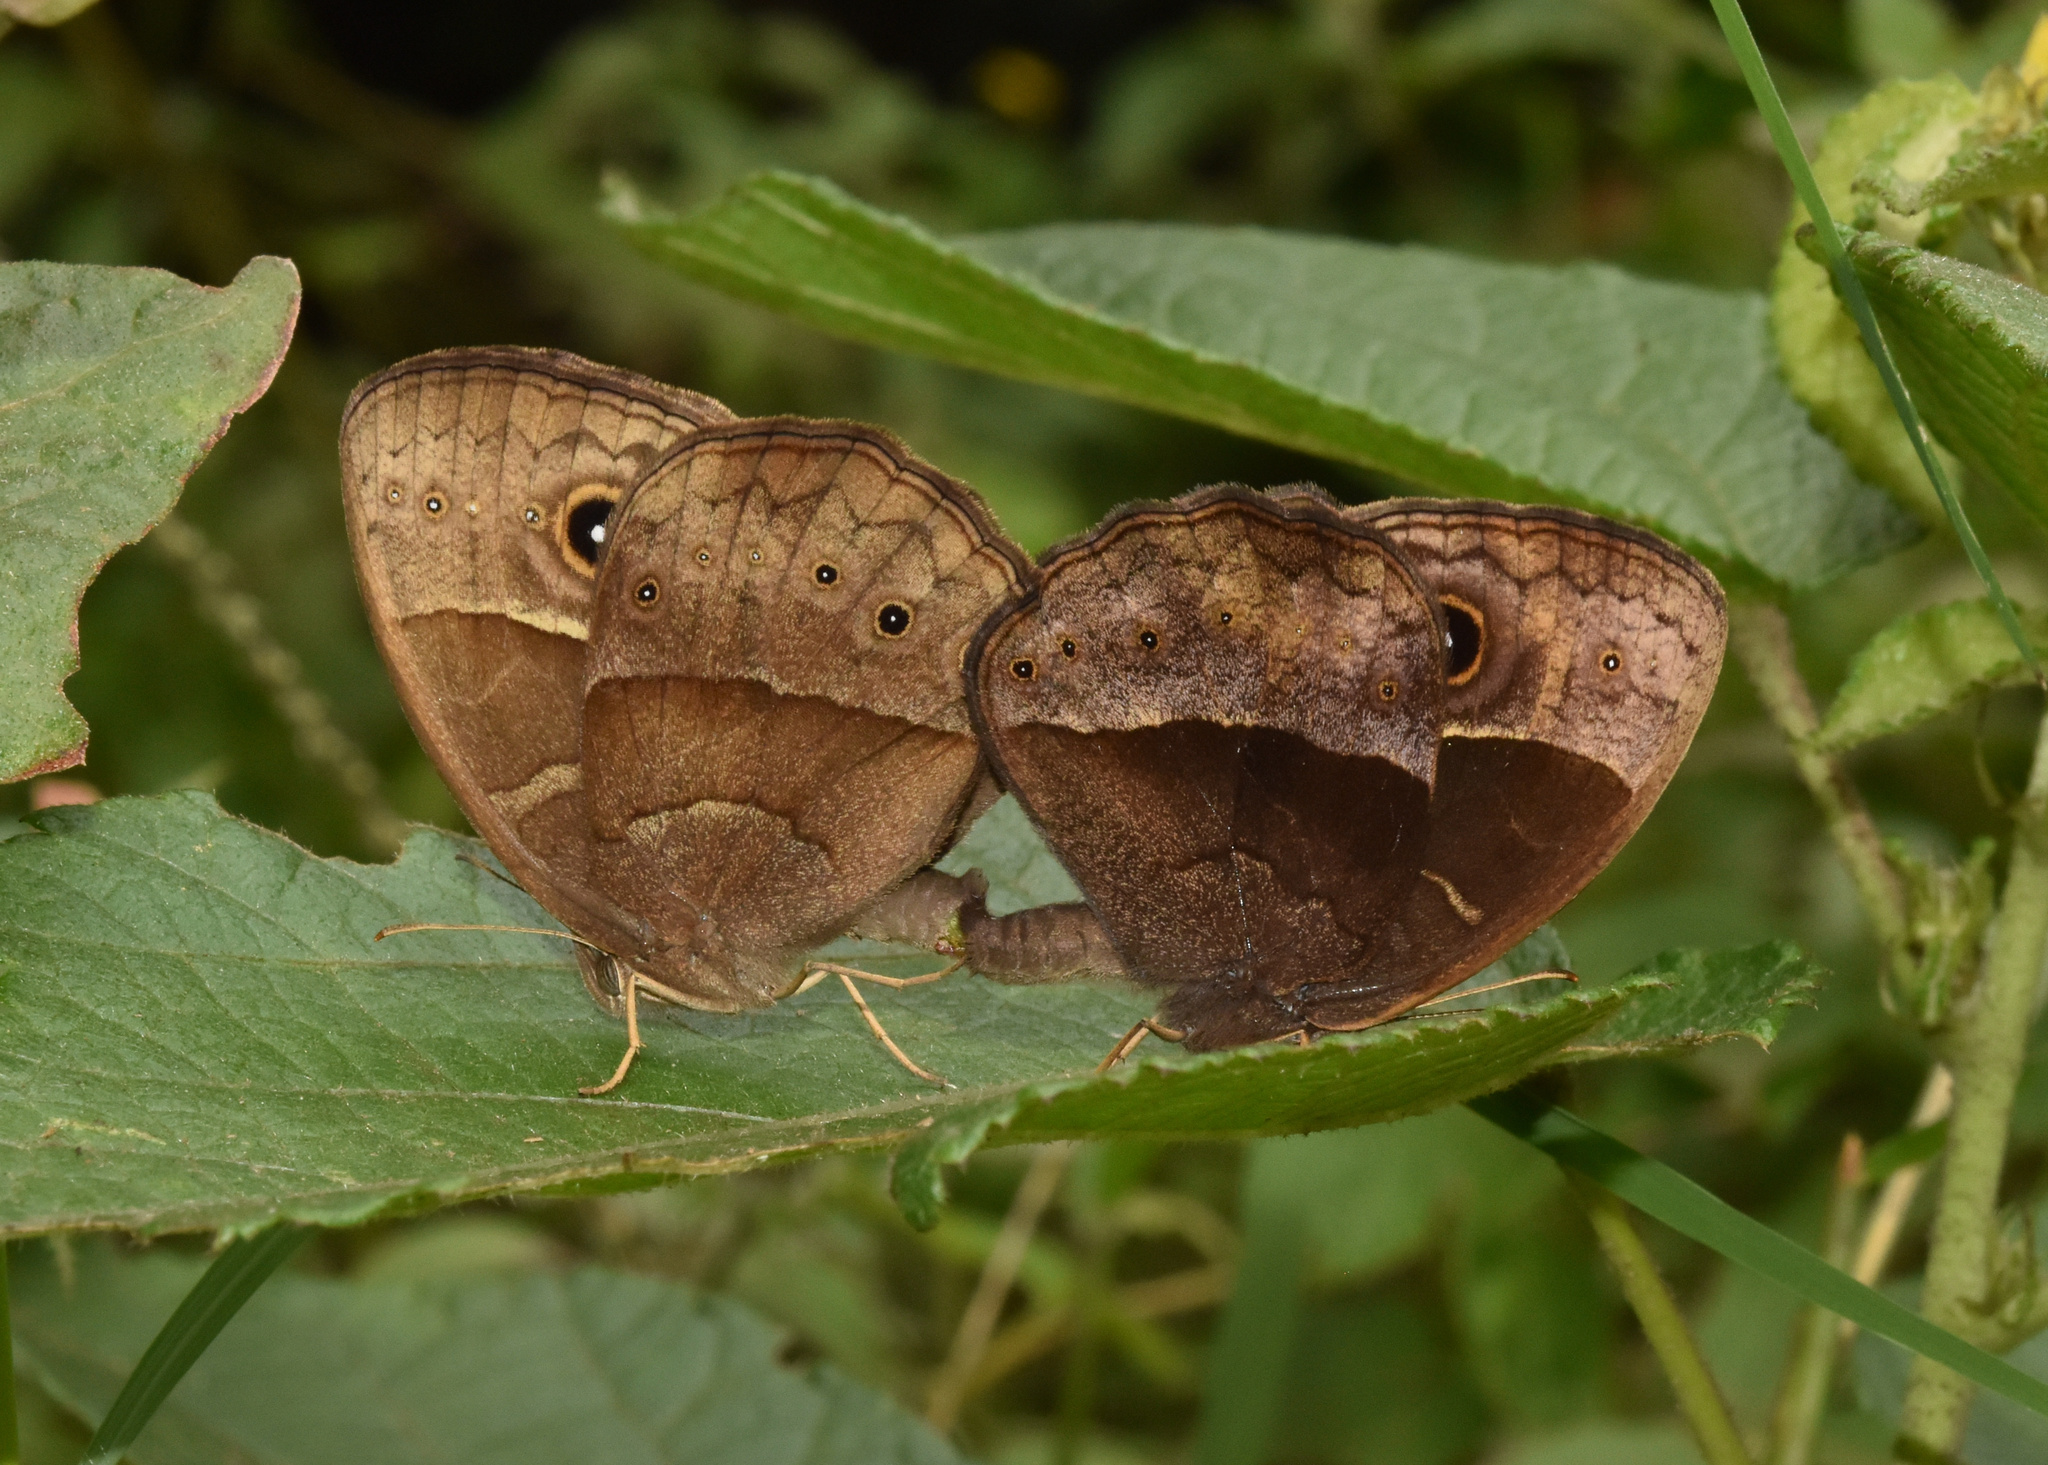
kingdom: Animalia
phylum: Arthropoda
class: Insecta
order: Lepidoptera
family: Nymphalidae
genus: Mycalesis
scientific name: Mycalesis rhacotis
